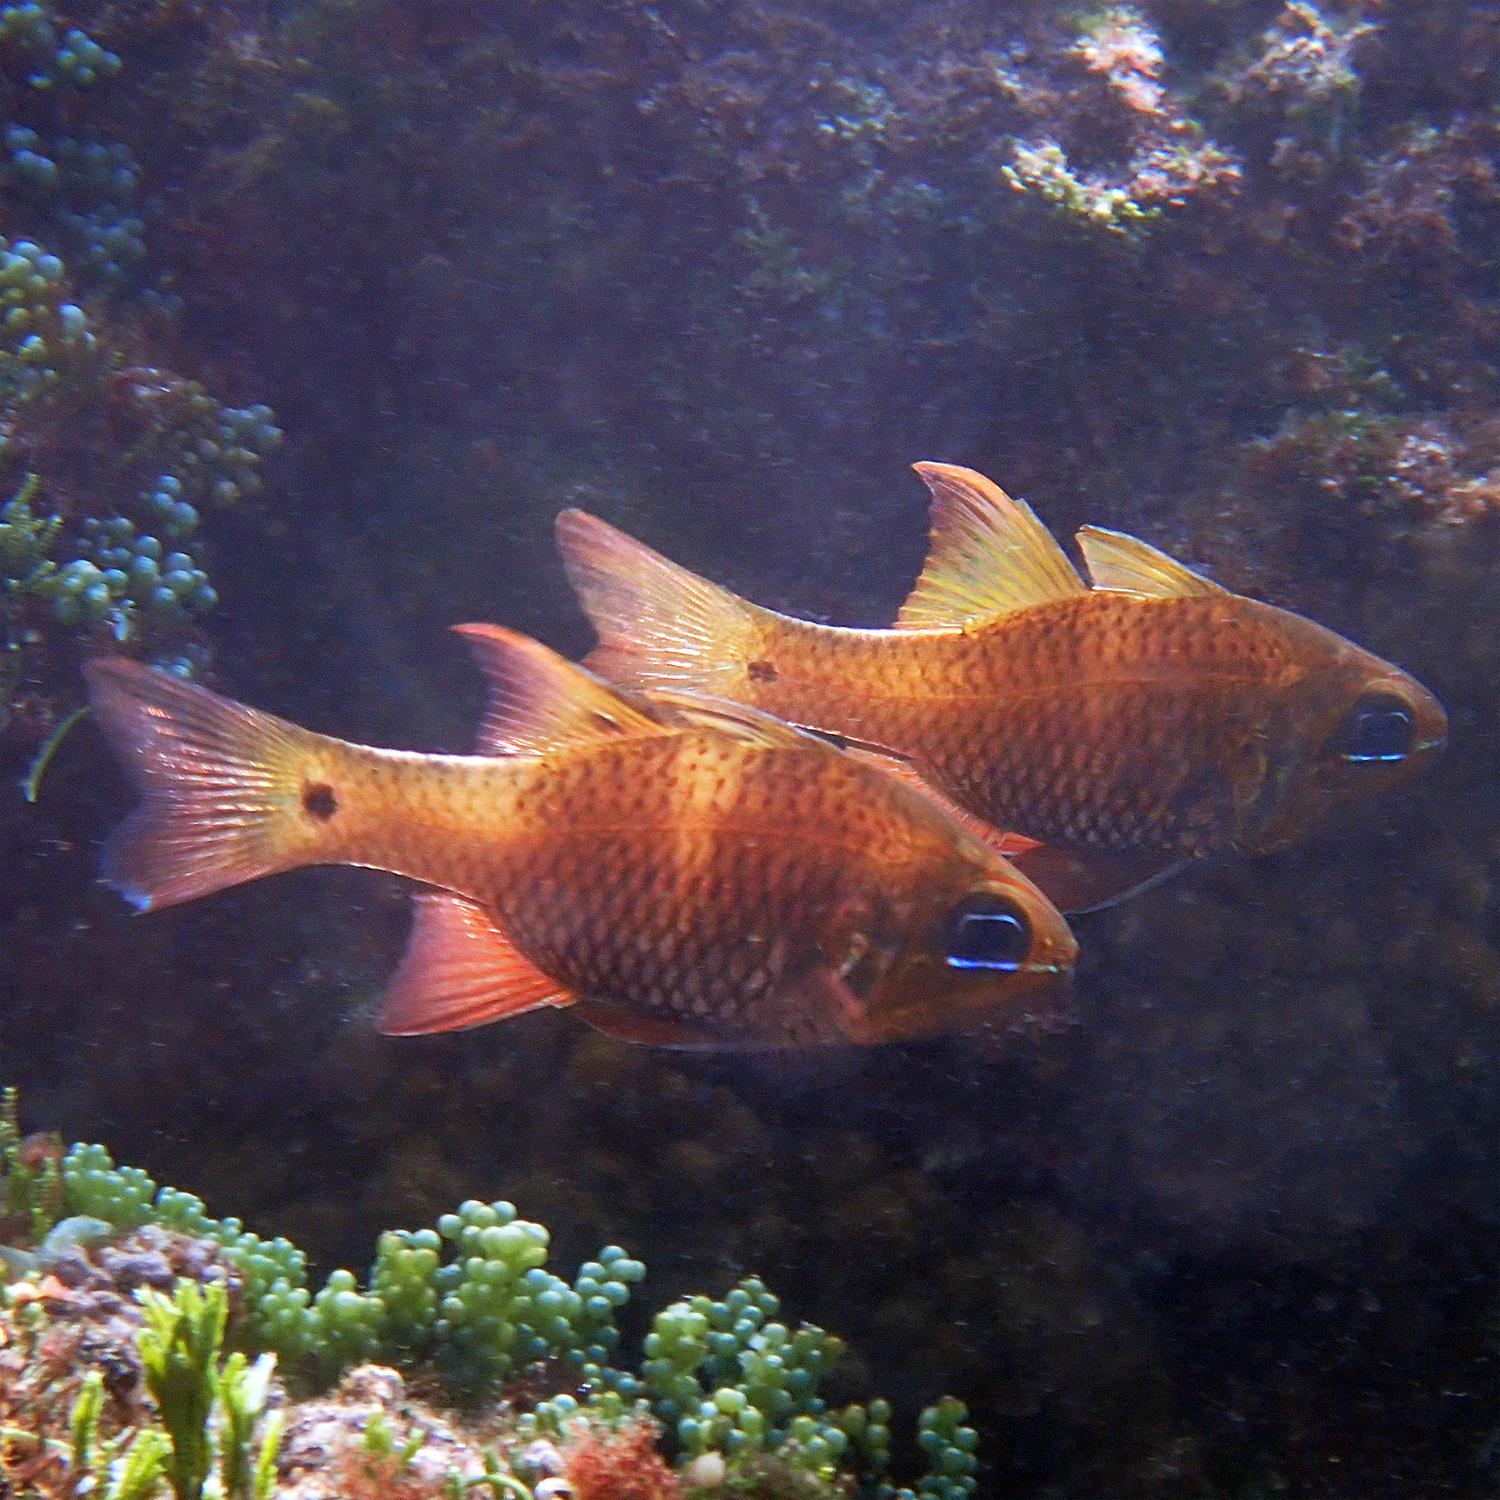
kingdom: Animalia
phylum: Chordata
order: Perciformes
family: Apogonidae
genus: Ostorhinchus
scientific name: Ostorhinchus norfolcensis
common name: Norfolk cardinalfish
